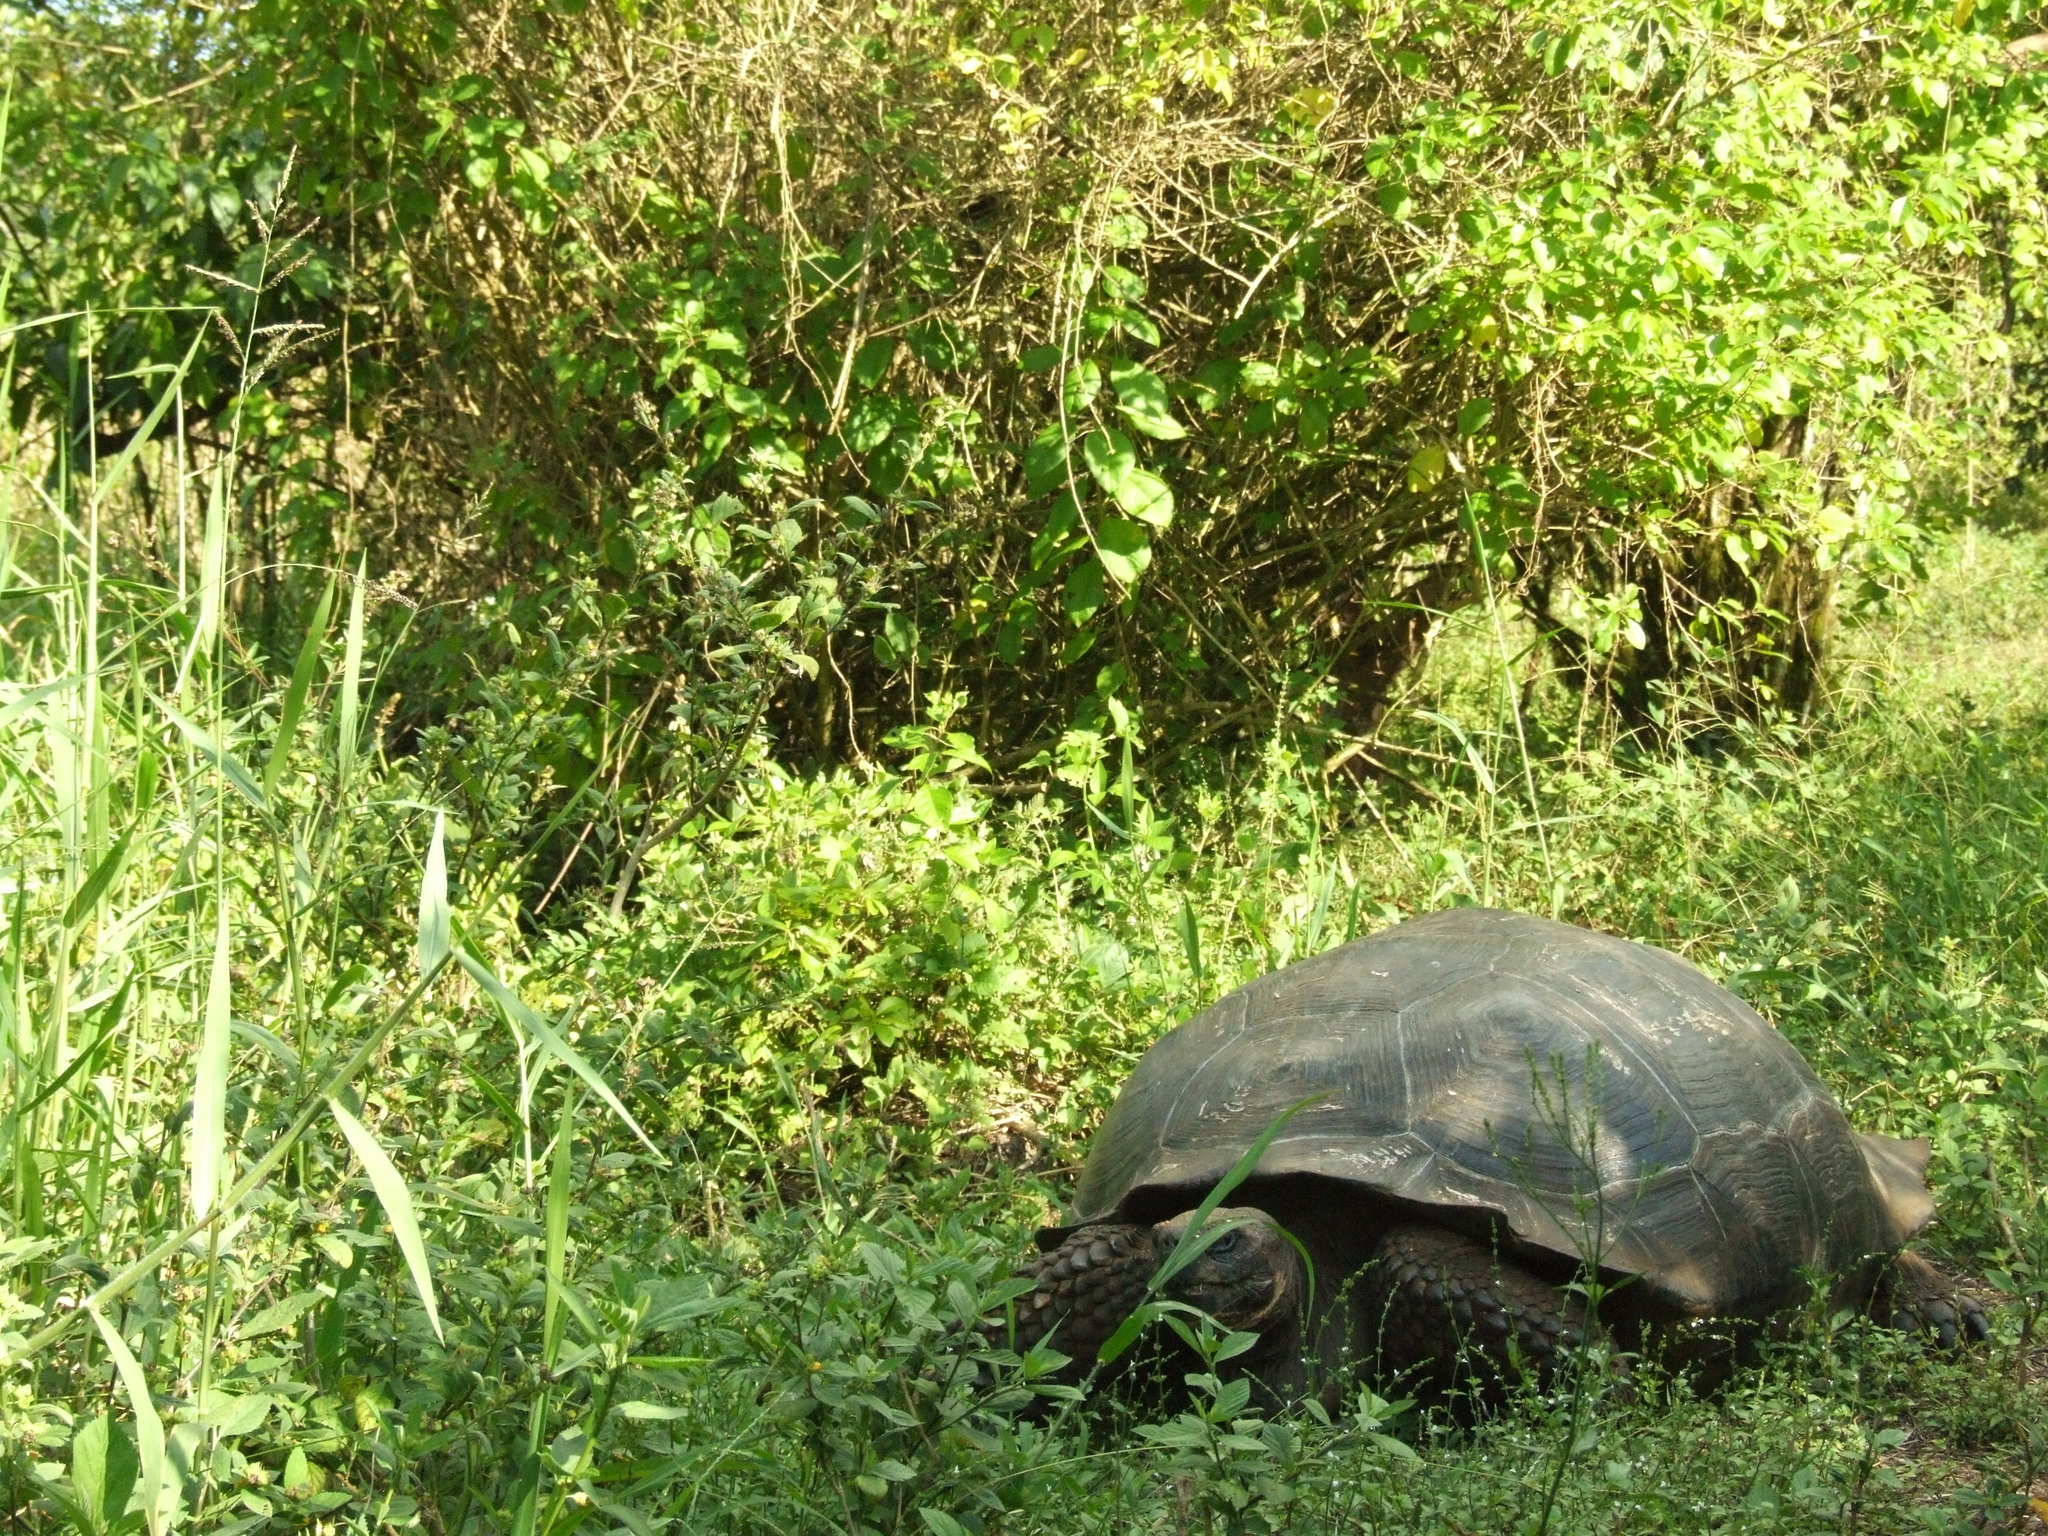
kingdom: Animalia
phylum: Chordata
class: Testudines
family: Testudinidae
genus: Chelonoidis
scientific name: Chelonoidis niger
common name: Charles island giant tortoise
